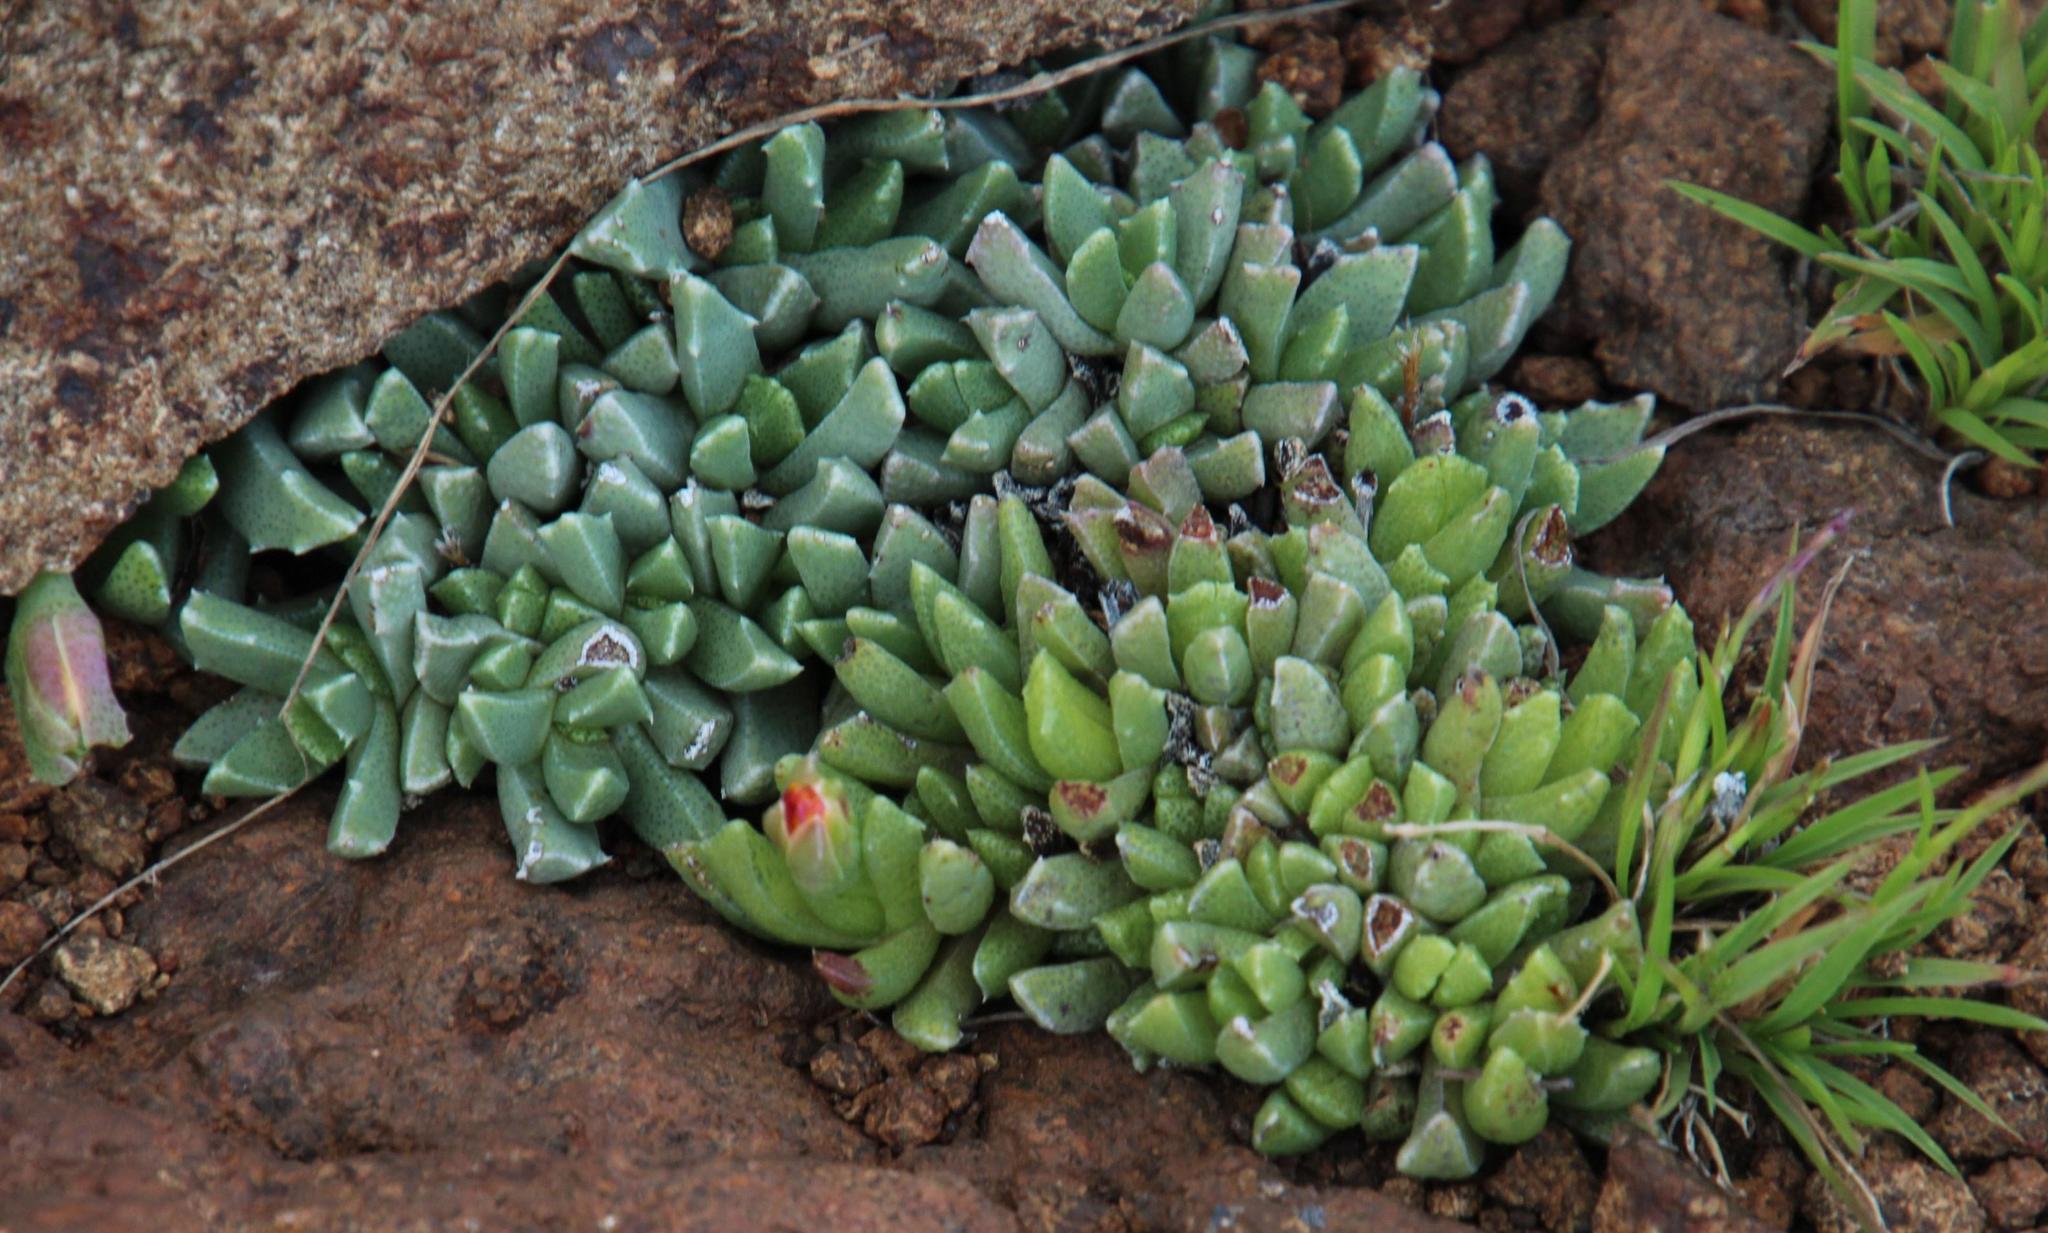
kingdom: Plantae
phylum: Tracheophyta
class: Magnoliopsida
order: Caryophyllales
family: Aizoaceae
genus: Dracophilus
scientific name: Dracophilus Chasmatophyllum musculinum
